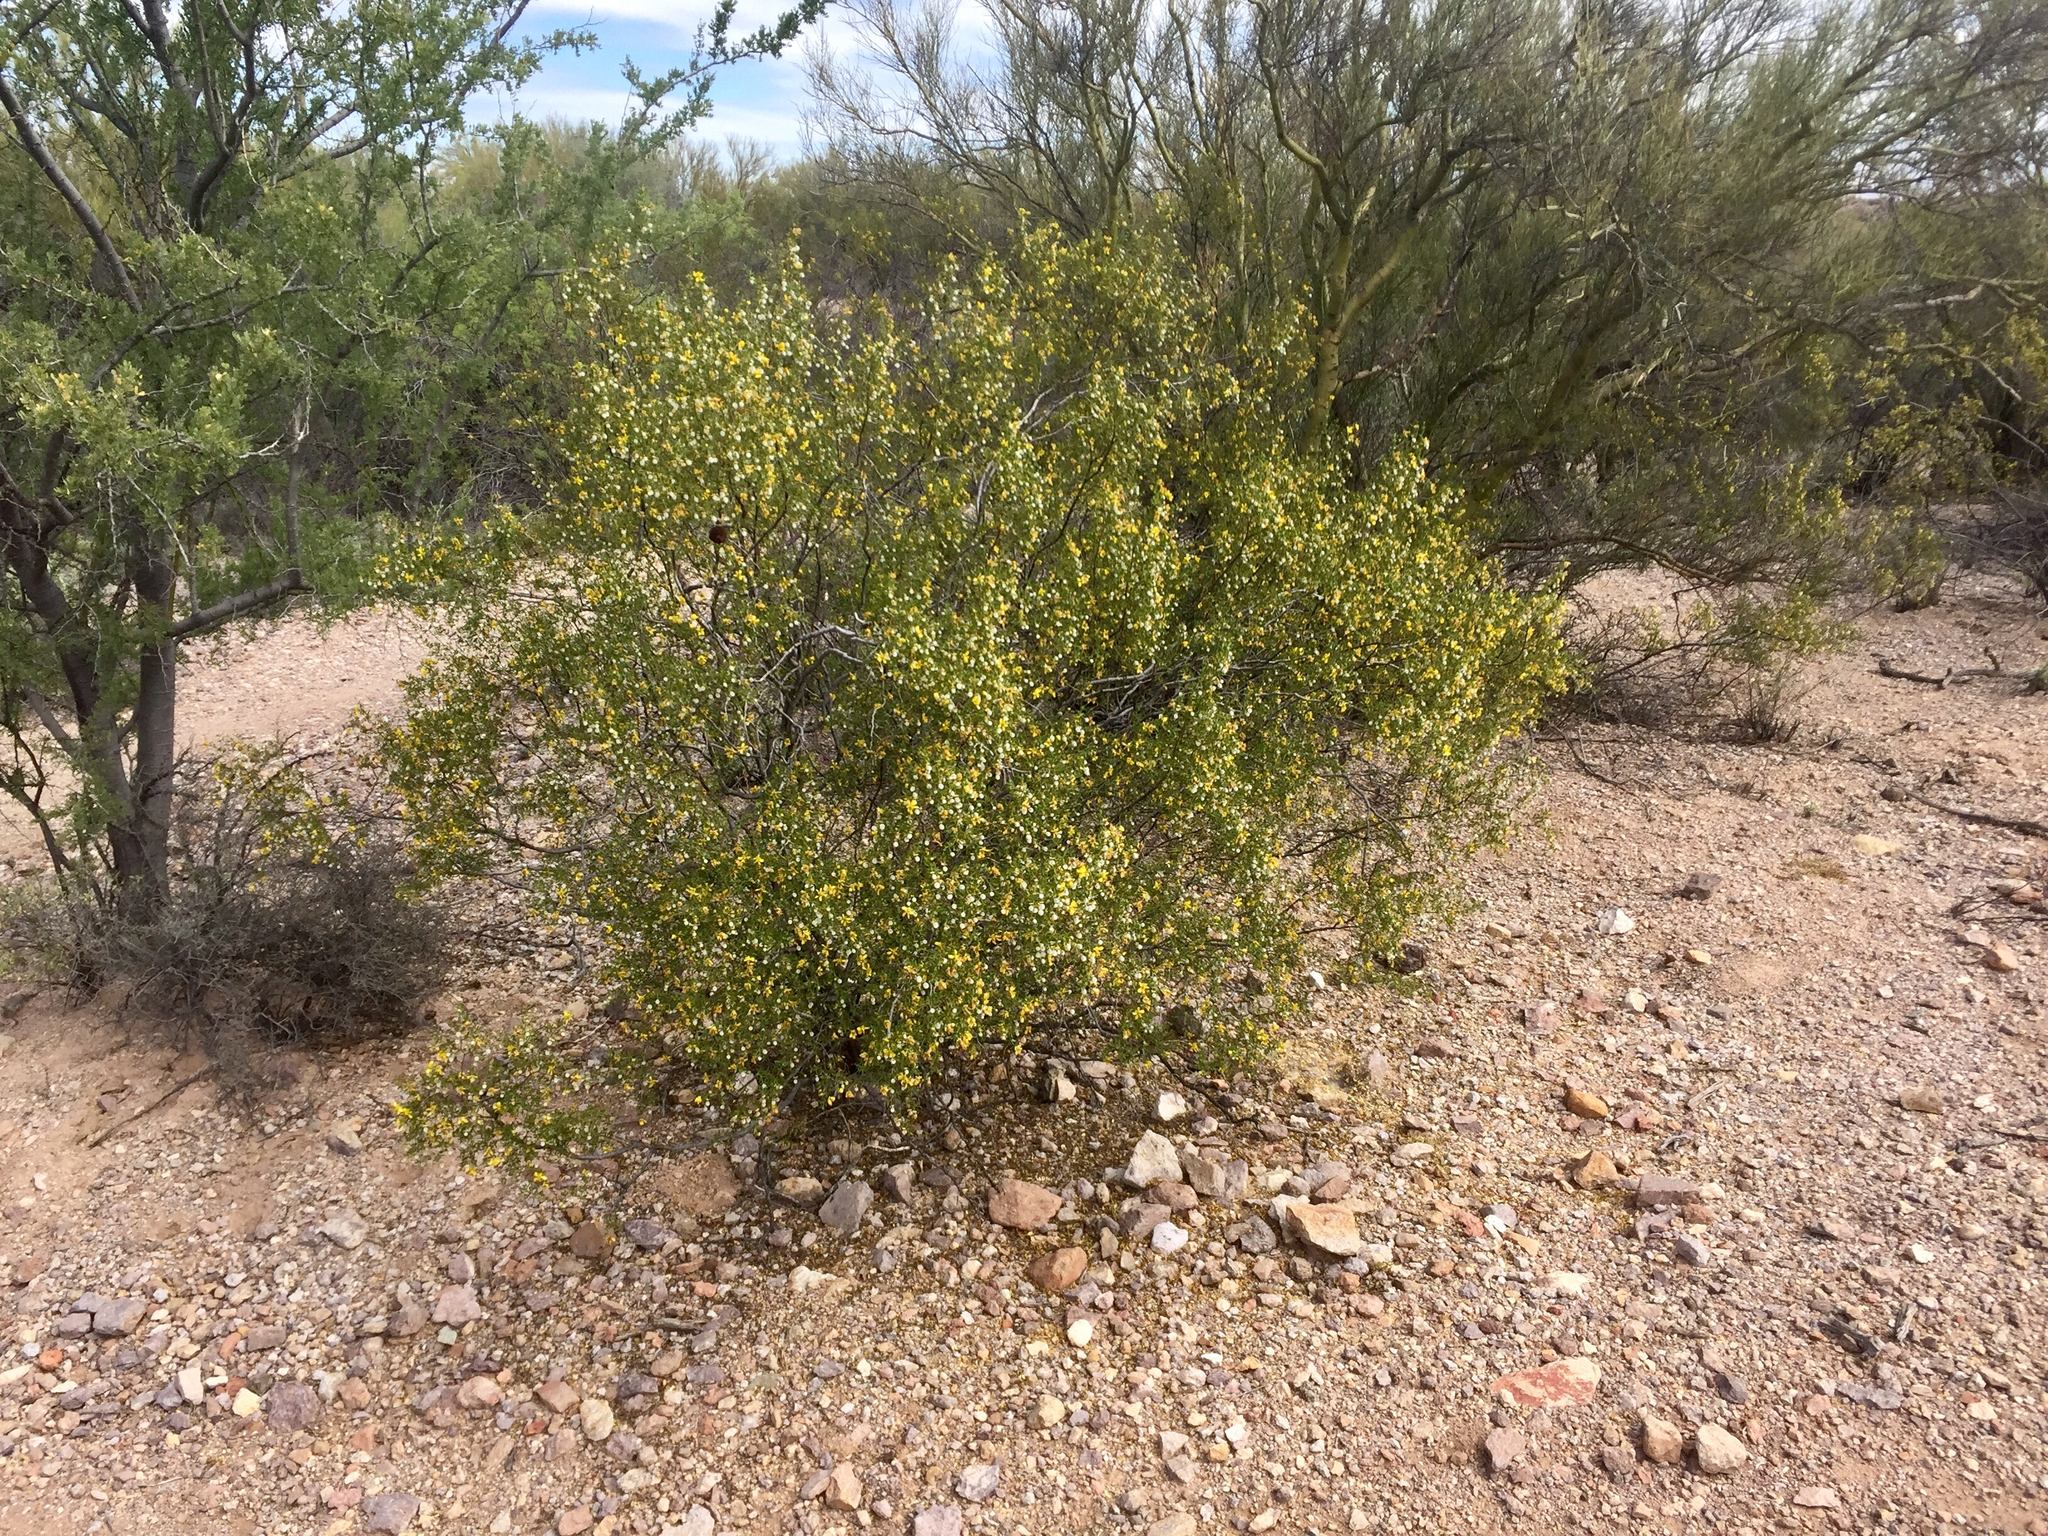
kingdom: Plantae
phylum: Tracheophyta
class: Magnoliopsida
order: Zygophyllales
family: Zygophyllaceae
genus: Larrea
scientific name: Larrea tridentata
